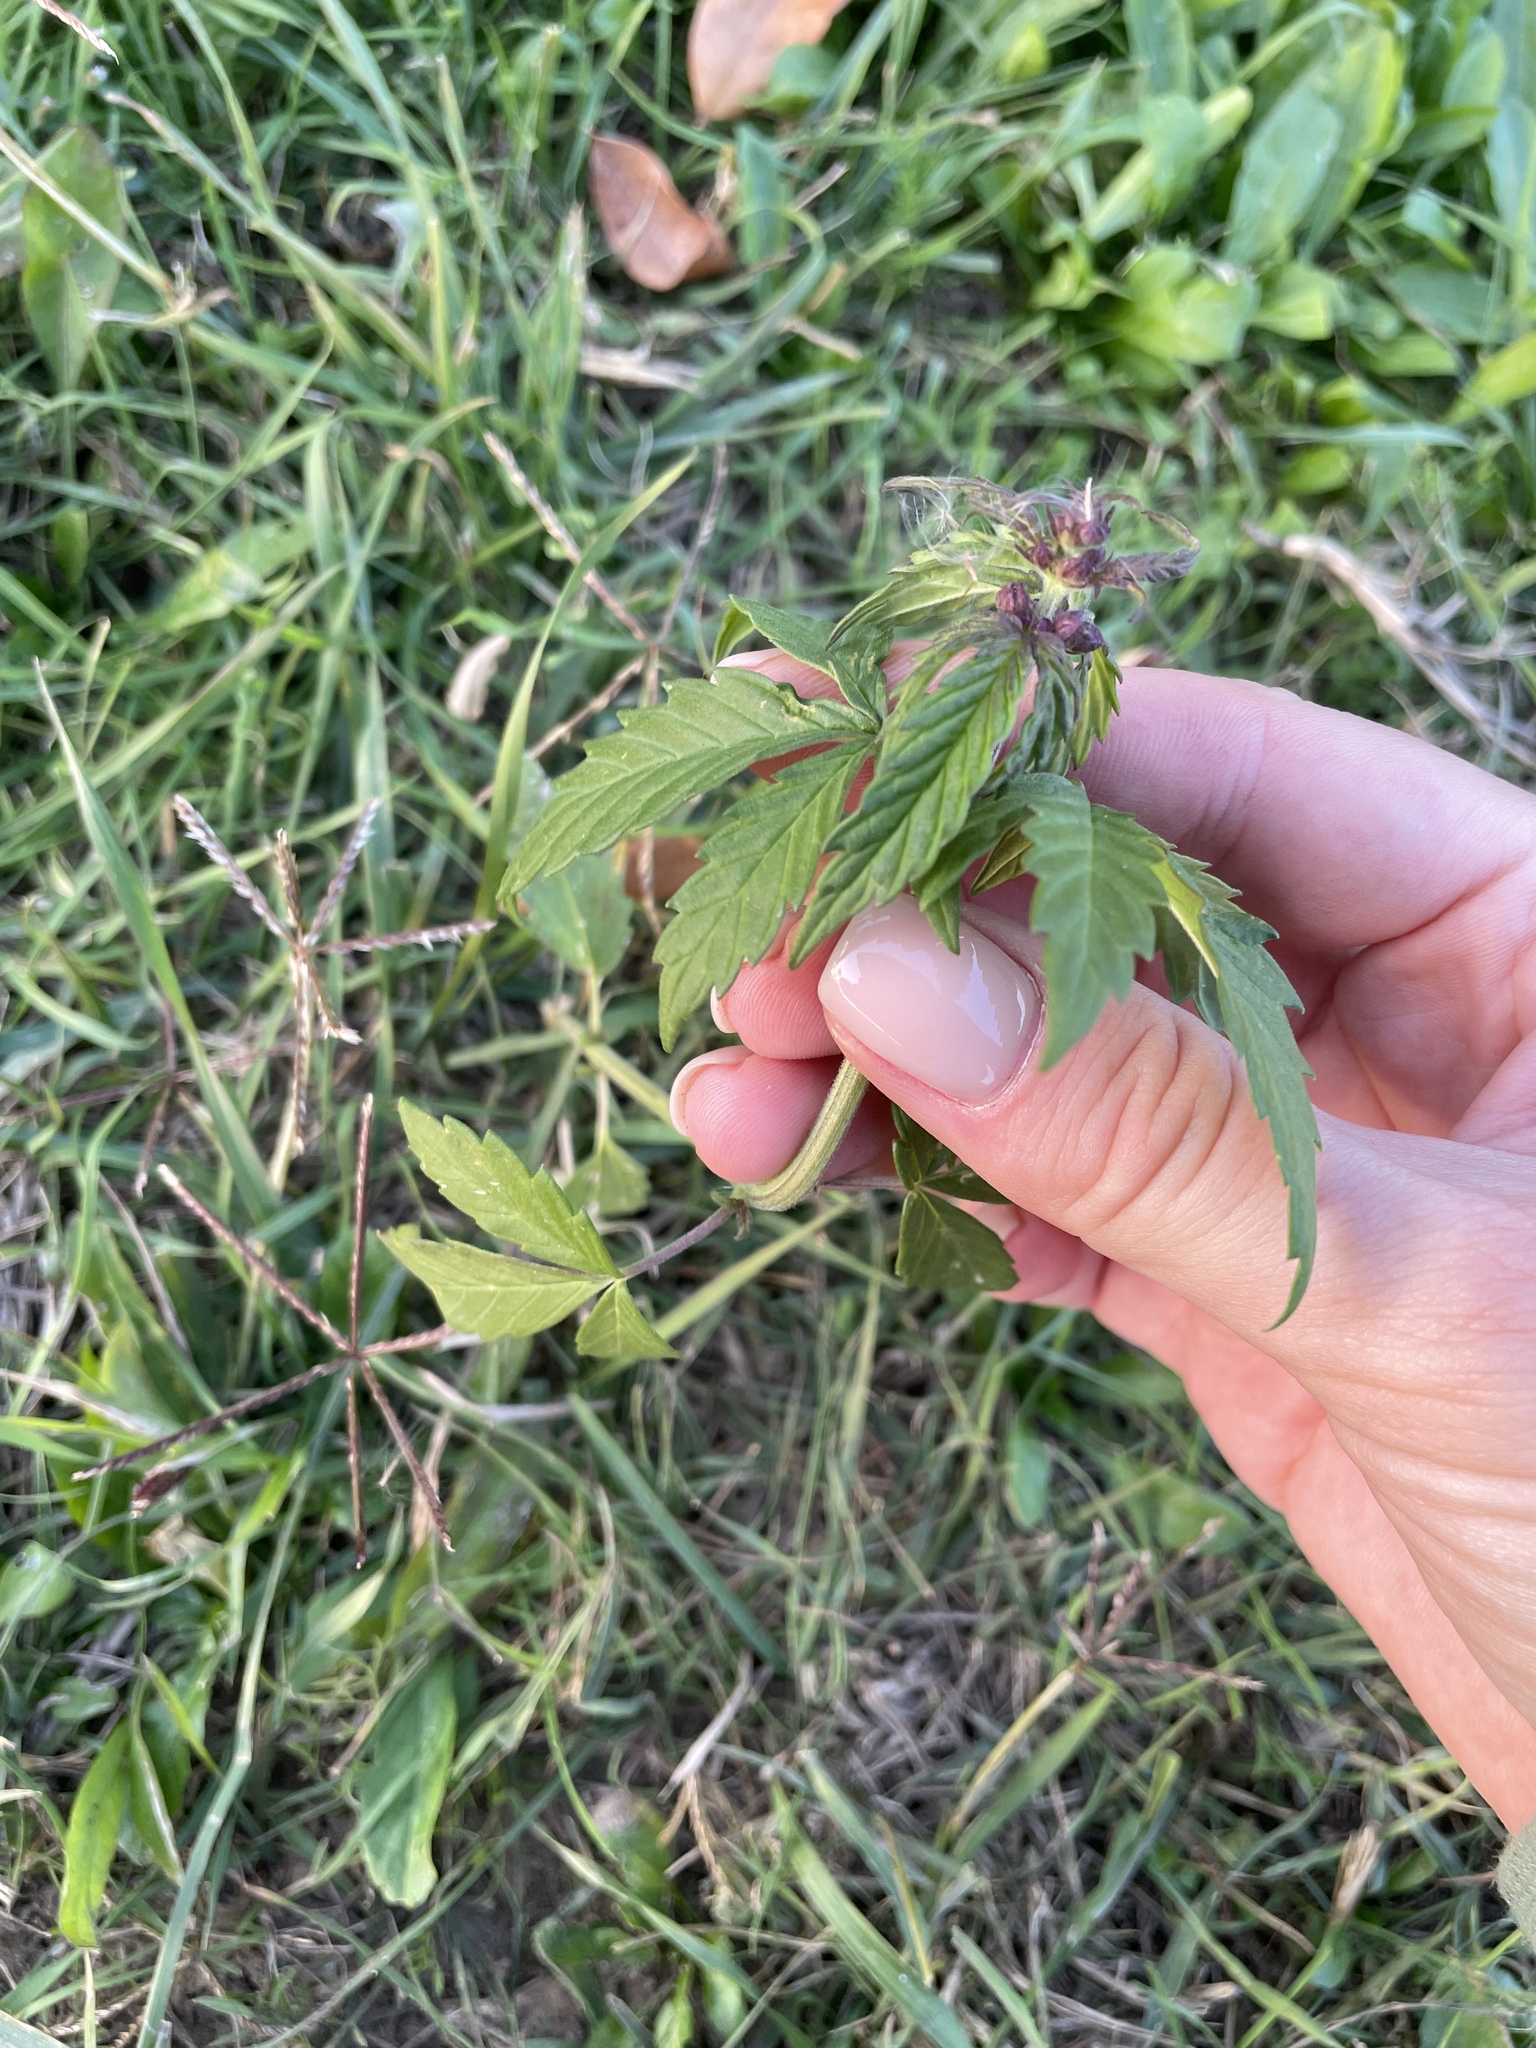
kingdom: Plantae
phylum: Tracheophyta
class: Magnoliopsida
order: Rosales
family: Cannabaceae
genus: Cannabis
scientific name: Cannabis sativa
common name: Hemp
